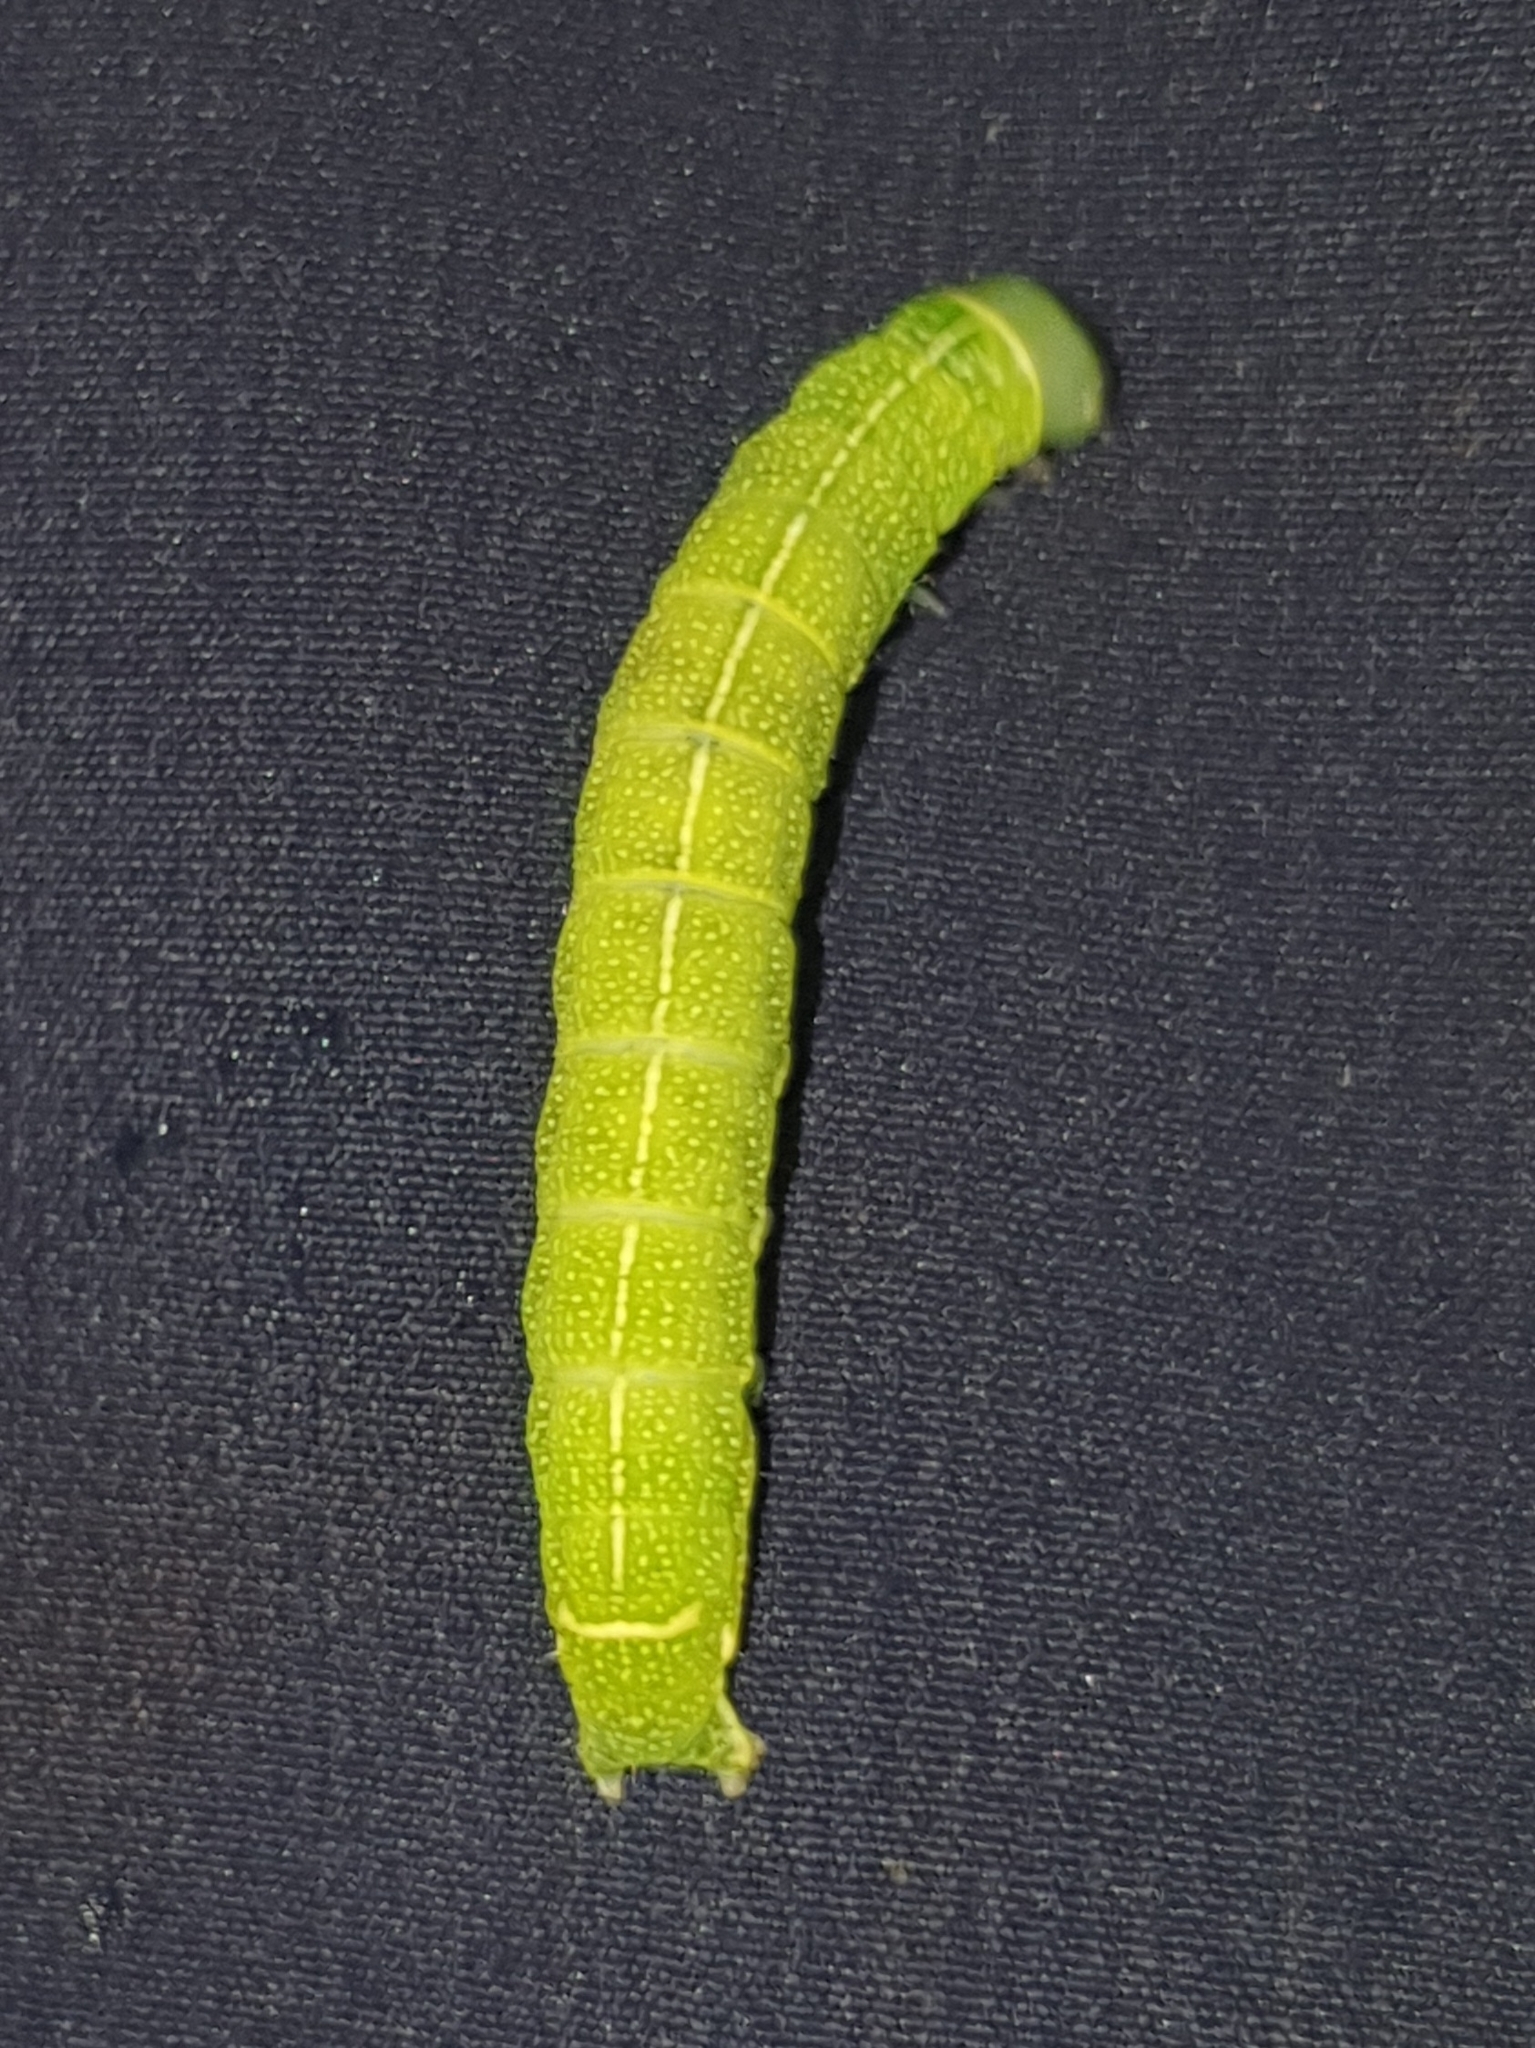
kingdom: Animalia
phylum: Arthropoda
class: Insecta
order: Lepidoptera
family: Noctuidae
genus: Orthosia
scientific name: Orthosia cerasi
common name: Common quaker
